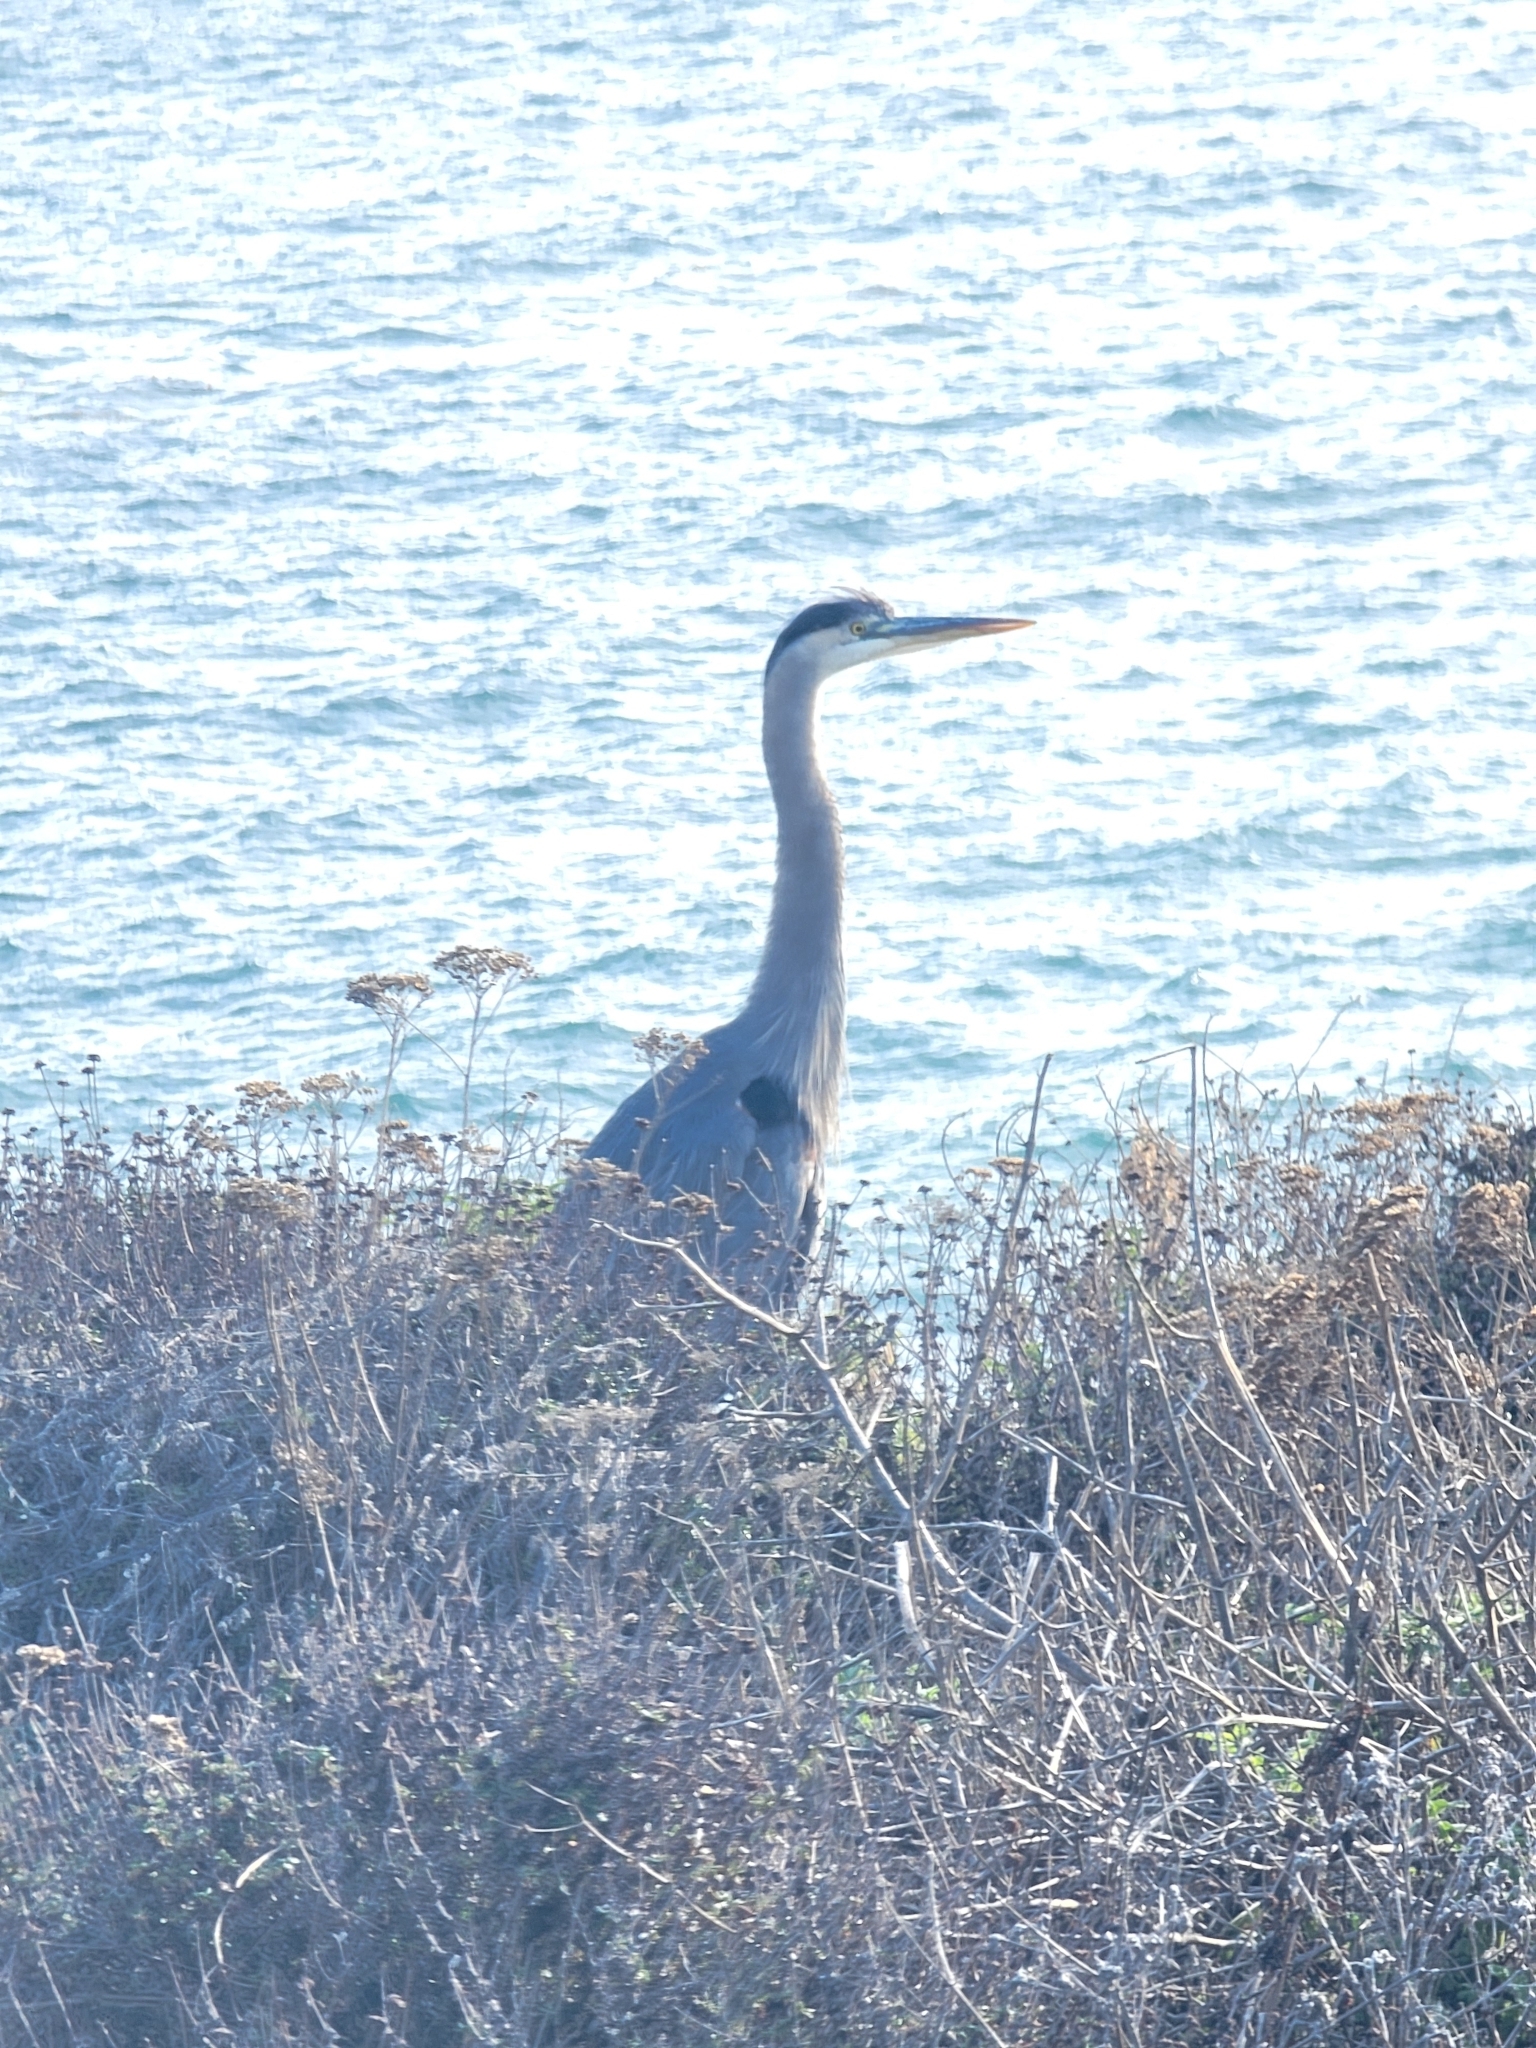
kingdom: Animalia
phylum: Chordata
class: Aves
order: Pelecaniformes
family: Ardeidae
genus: Ardea
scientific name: Ardea herodias
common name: Great blue heron
